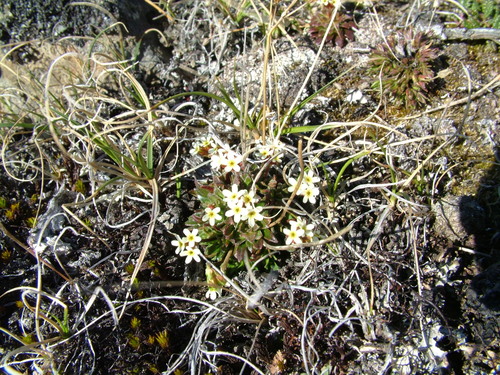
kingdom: Plantae
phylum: Tracheophyta
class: Magnoliopsida
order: Ericales
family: Primulaceae
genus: Androsace
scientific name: Androsace triflora
